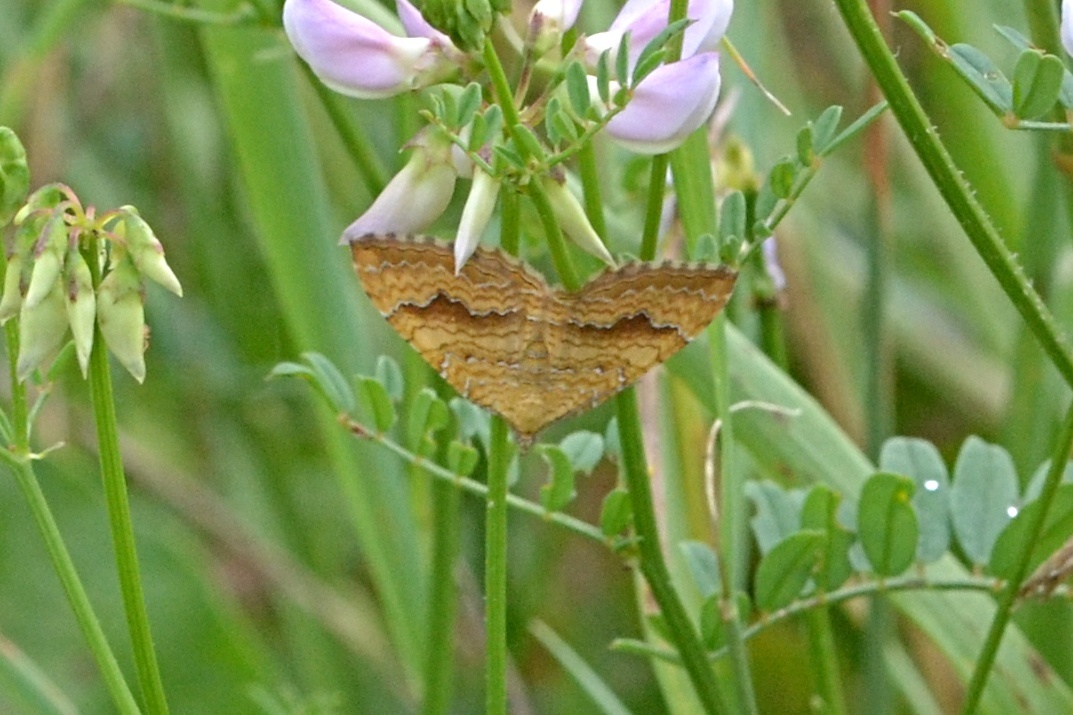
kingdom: Animalia
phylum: Arthropoda
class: Insecta
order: Lepidoptera
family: Geometridae
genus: Camptogramma
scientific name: Camptogramma bilineata
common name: Yellow shell
